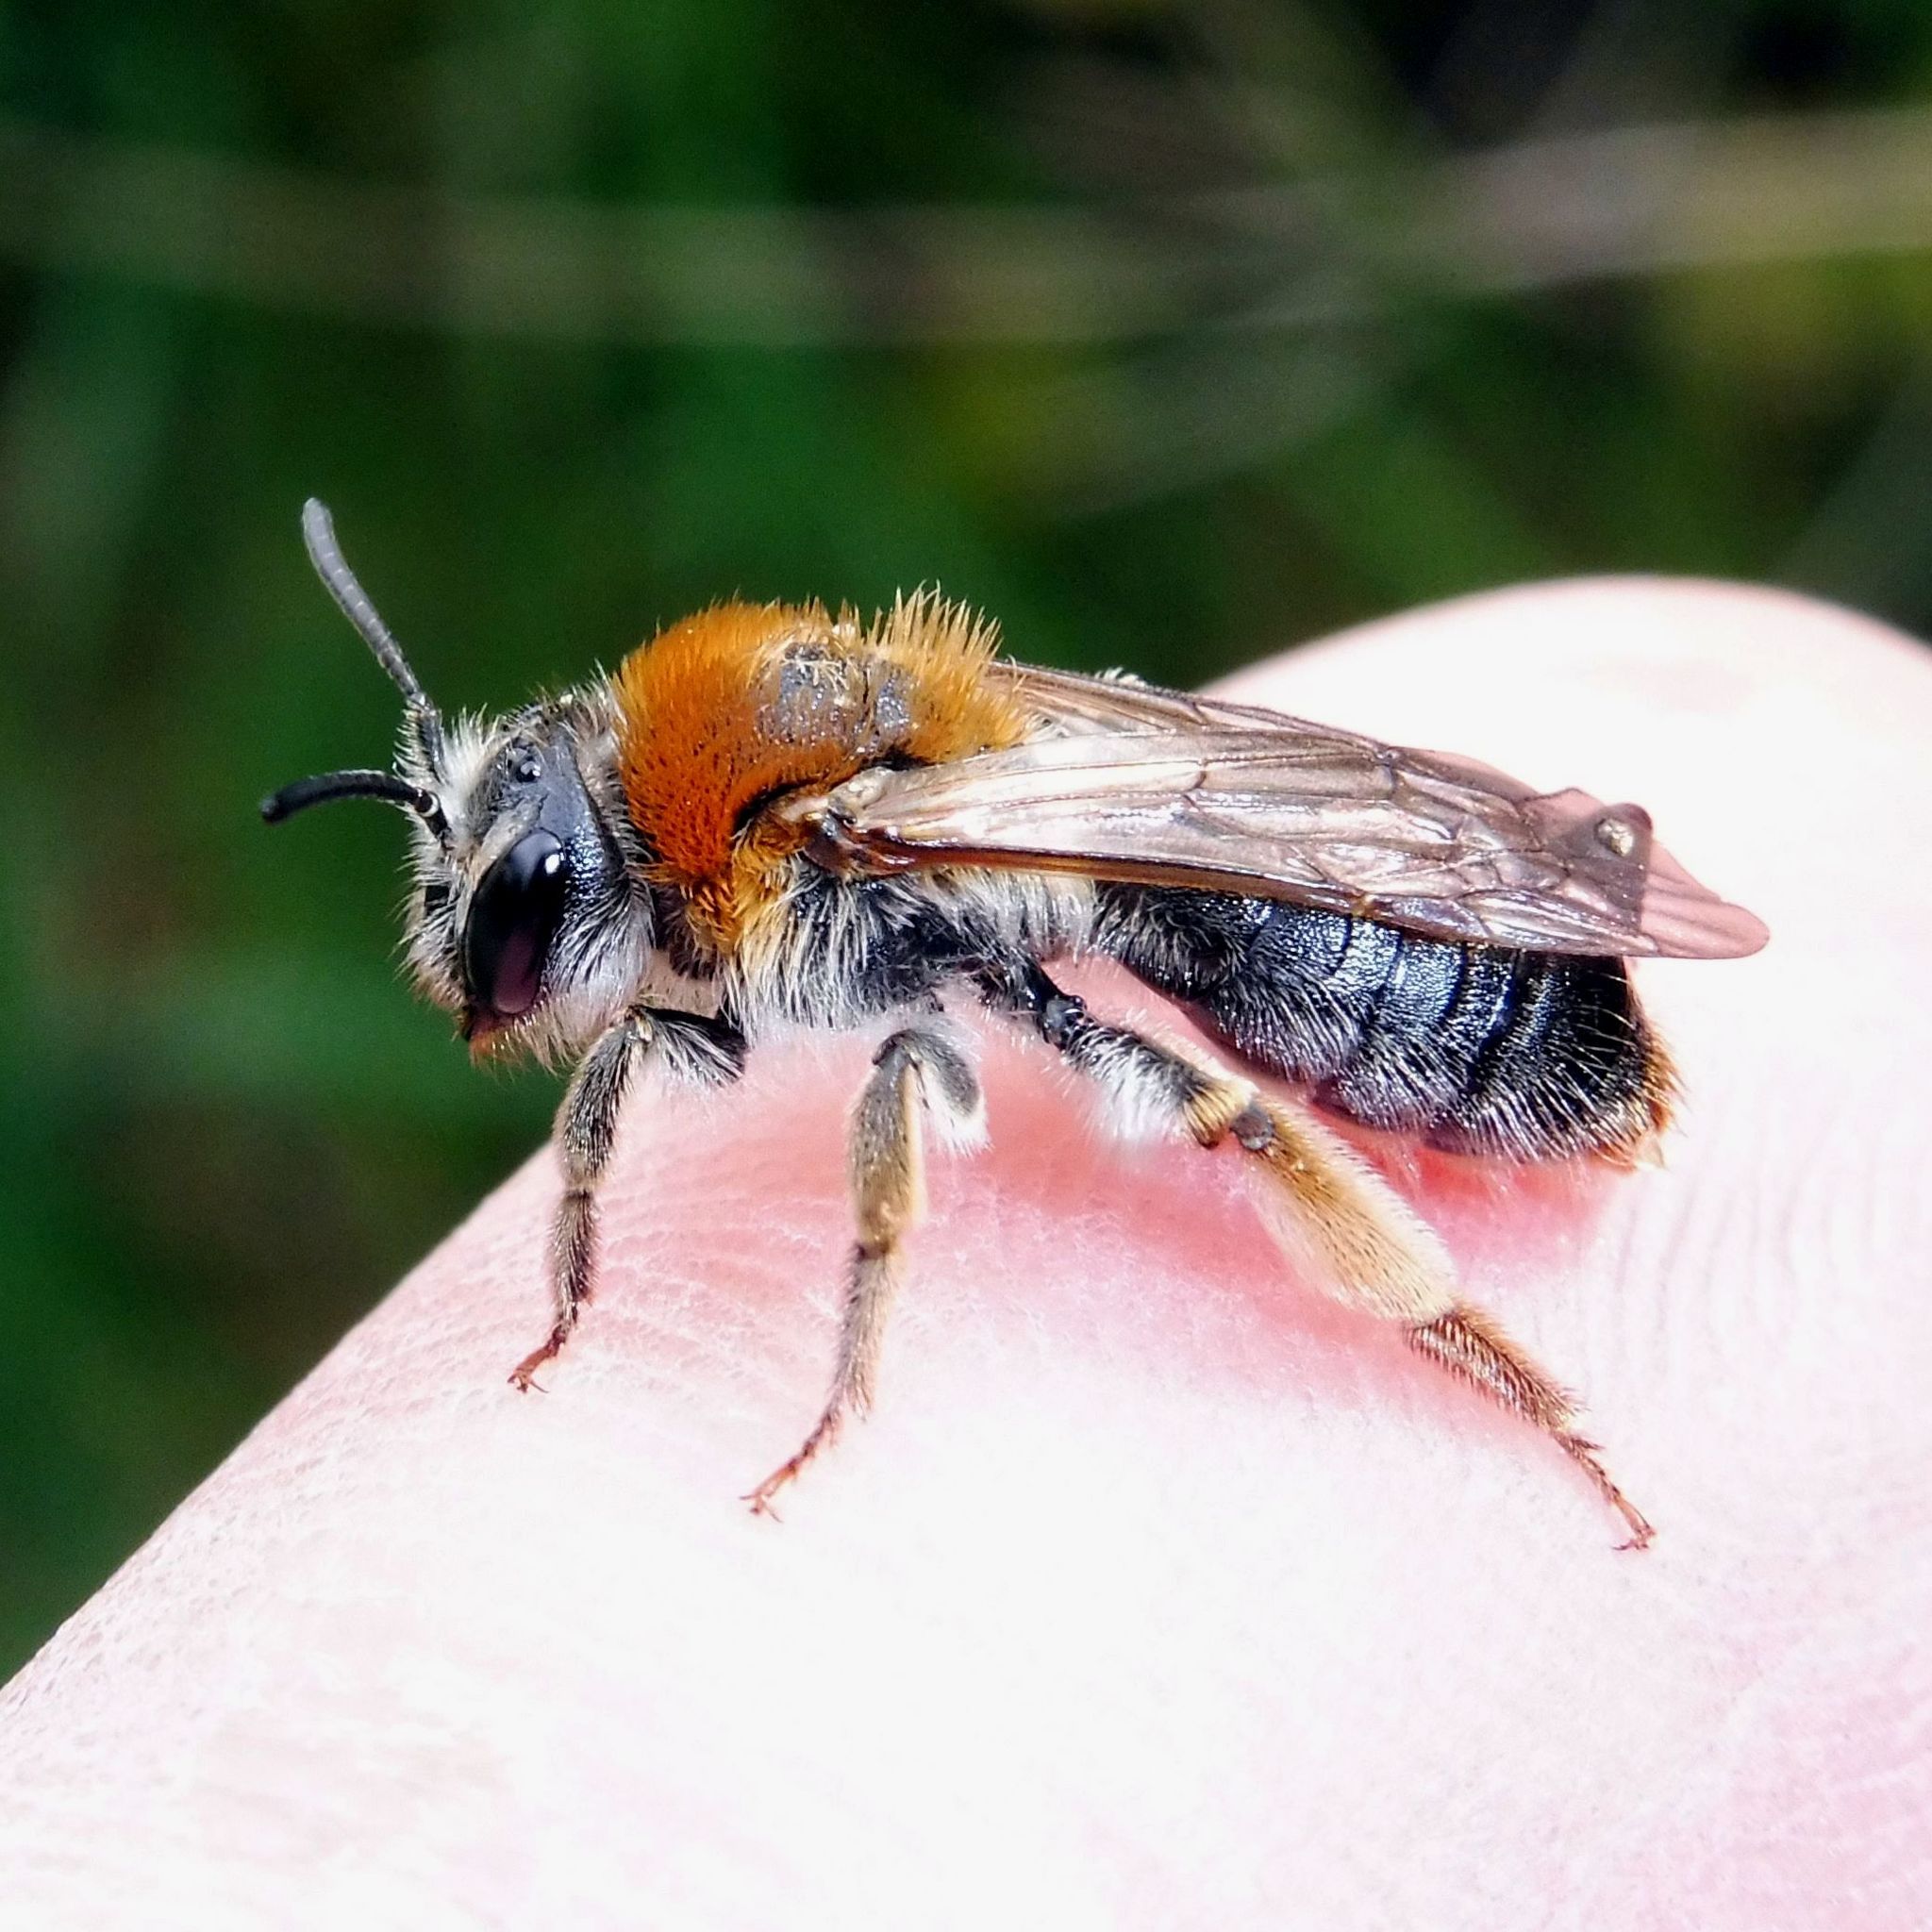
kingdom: Animalia
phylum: Arthropoda
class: Insecta
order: Hymenoptera
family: Andrenidae
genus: Andrena
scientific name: Andrena haemorrhoa
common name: Early mining bee
